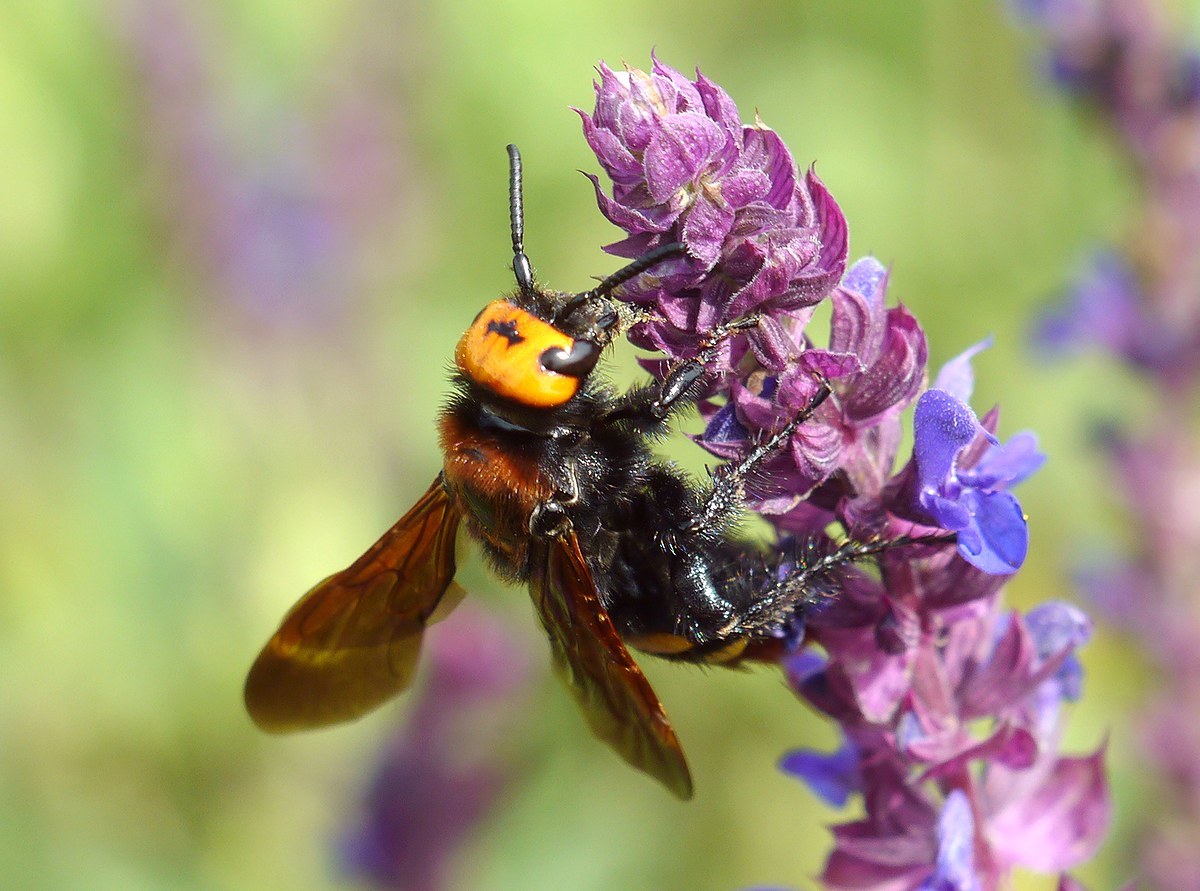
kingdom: Animalia
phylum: Arthropoda
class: Insecta
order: Hymenoptera
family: Scoliidae
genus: Megascolia
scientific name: Megascolia maculata
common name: Mammoth wasp
